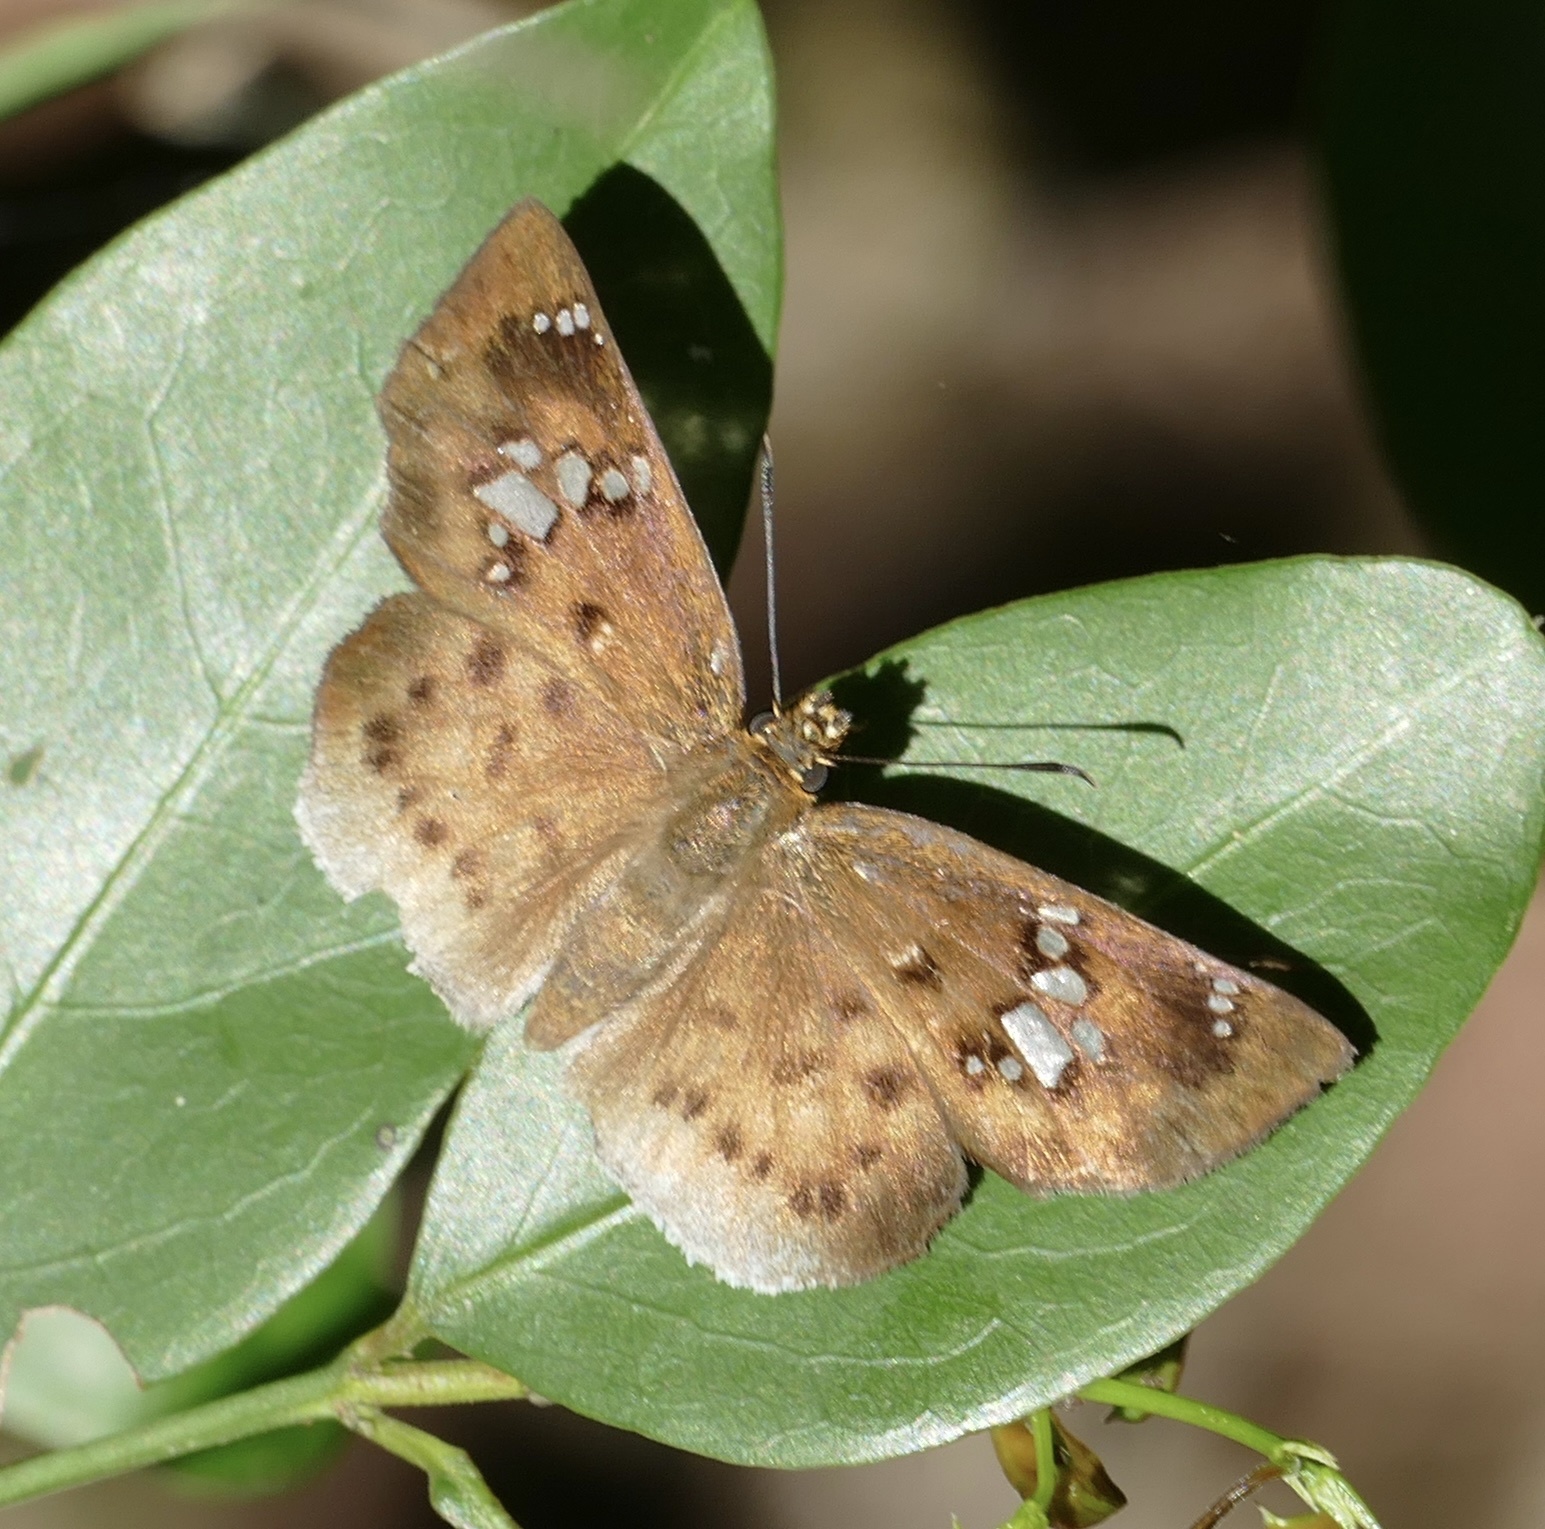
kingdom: Animalia
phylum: Arthropoda
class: Insecta
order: Lepidoptera
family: Hesperiidae
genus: Tagiades
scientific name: Tagiades flesus
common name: Clouded flat
